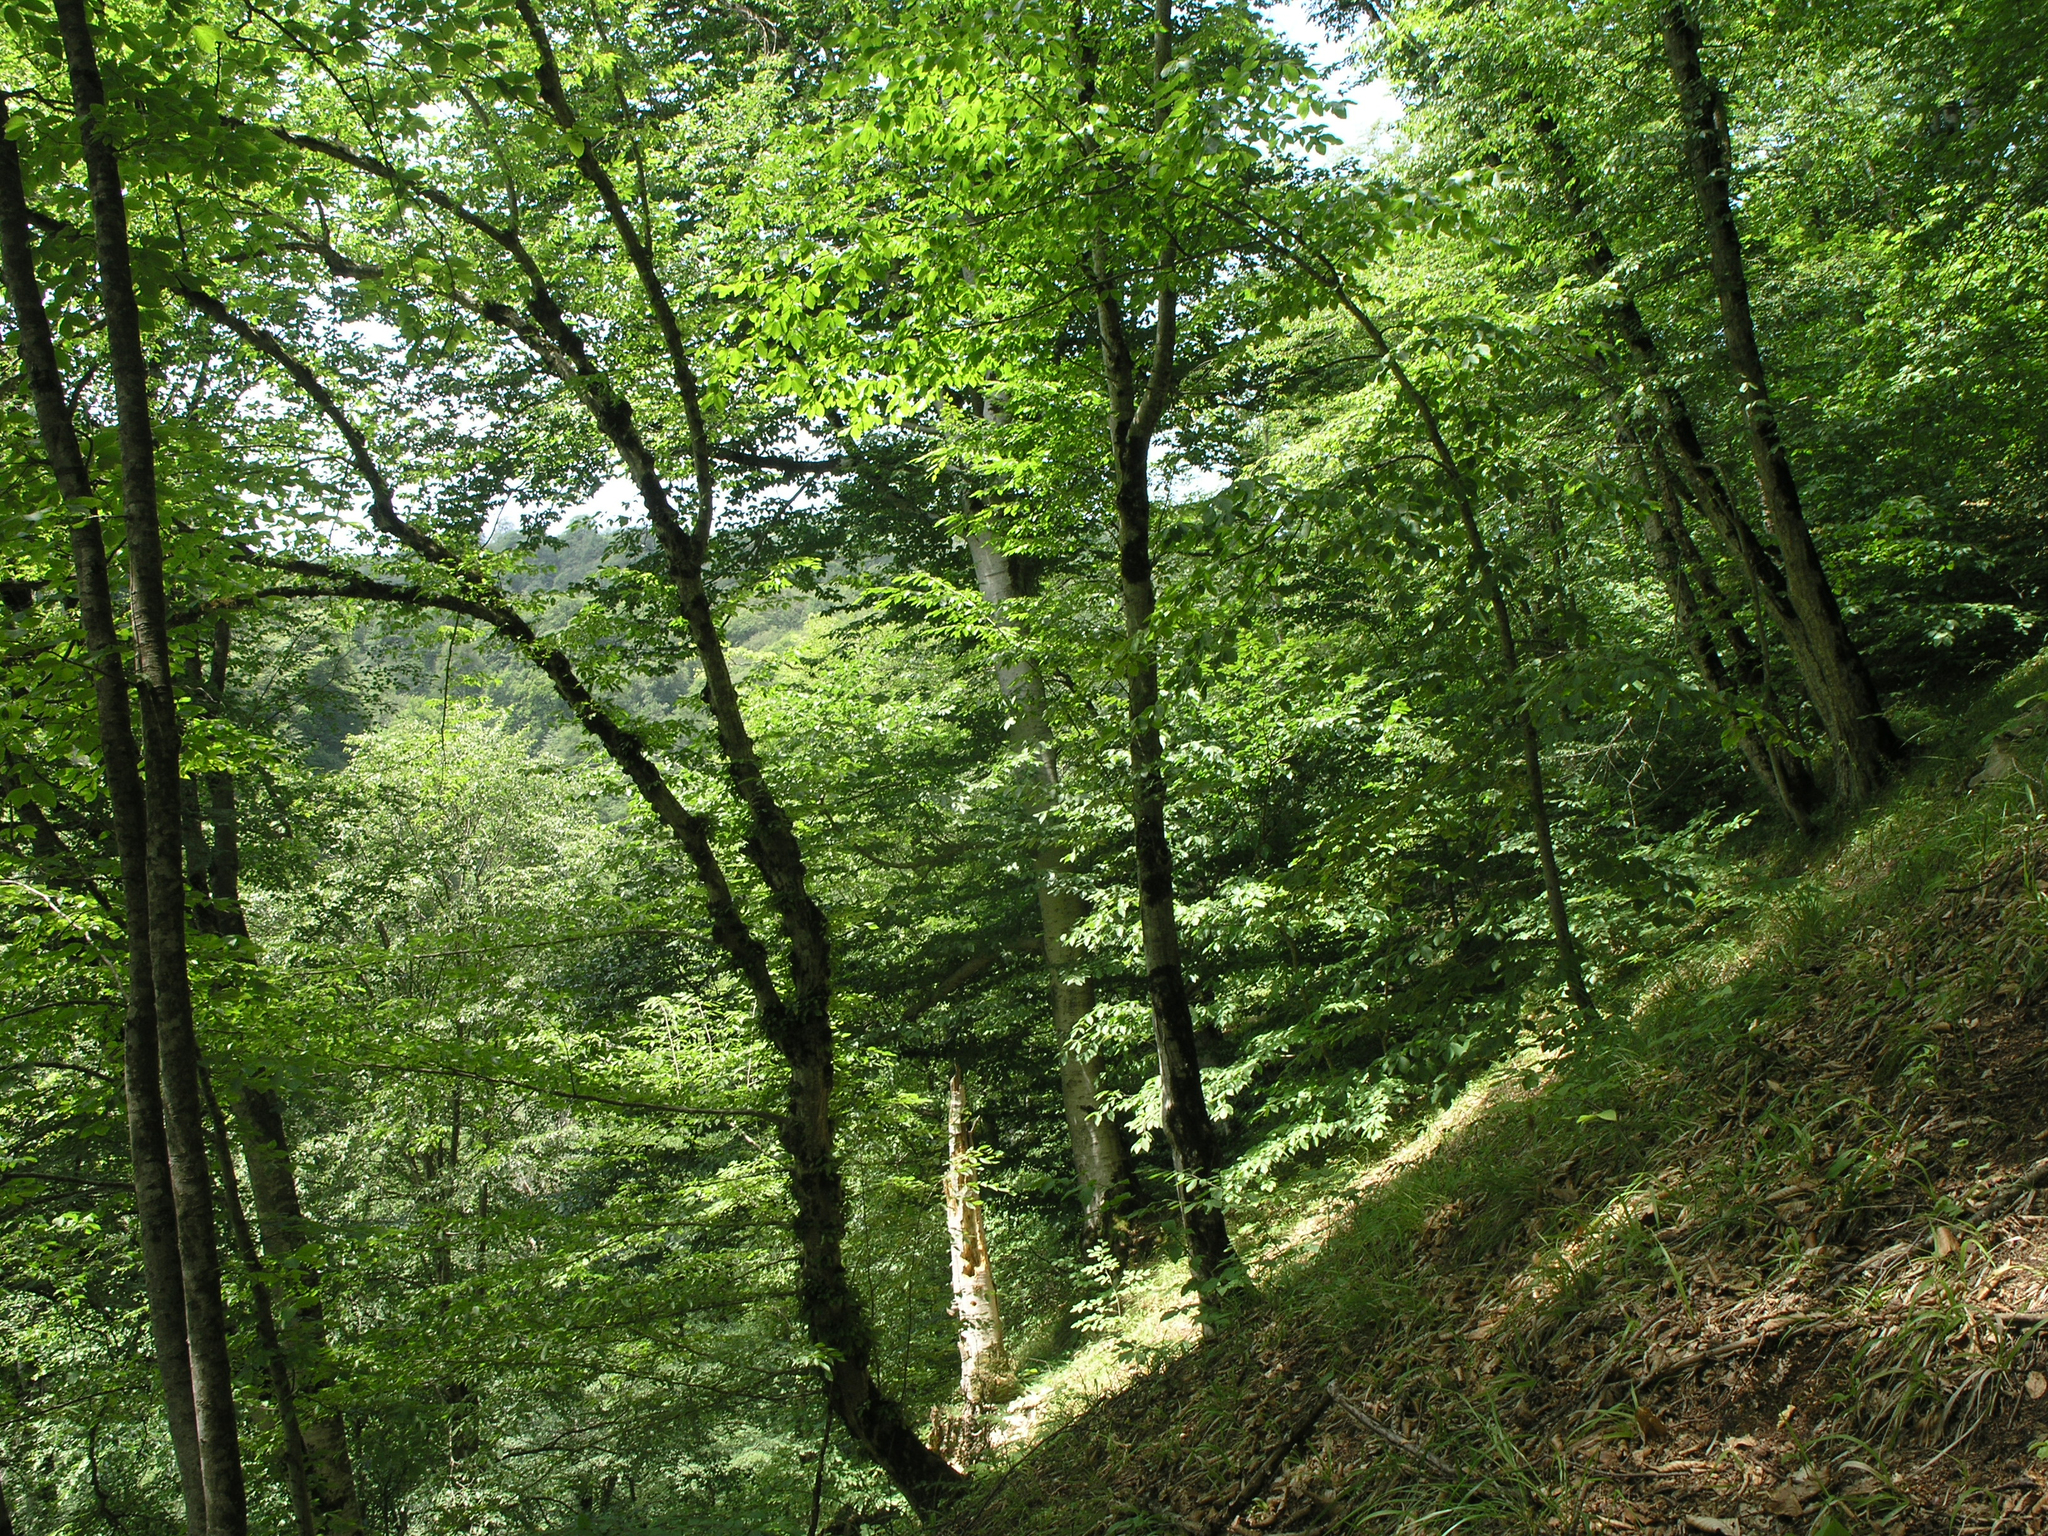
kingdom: Plantae
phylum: Tracheophyta
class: Magnoliopsida
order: Fagales
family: Fagaceae
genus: Fagus
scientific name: Fagus orientalis
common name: Oriental beech
